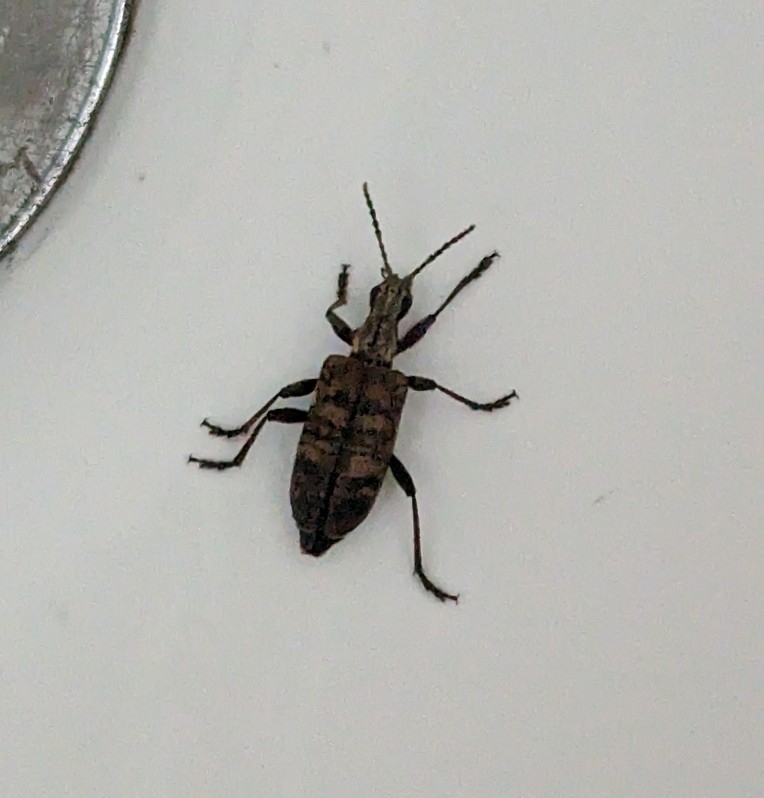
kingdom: Animalia
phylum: Arthropoda
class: Insecta
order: Coleoptera
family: Cerambycidae
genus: Rhagium
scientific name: Rhagium inquisitor
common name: Ribbed pine borer
